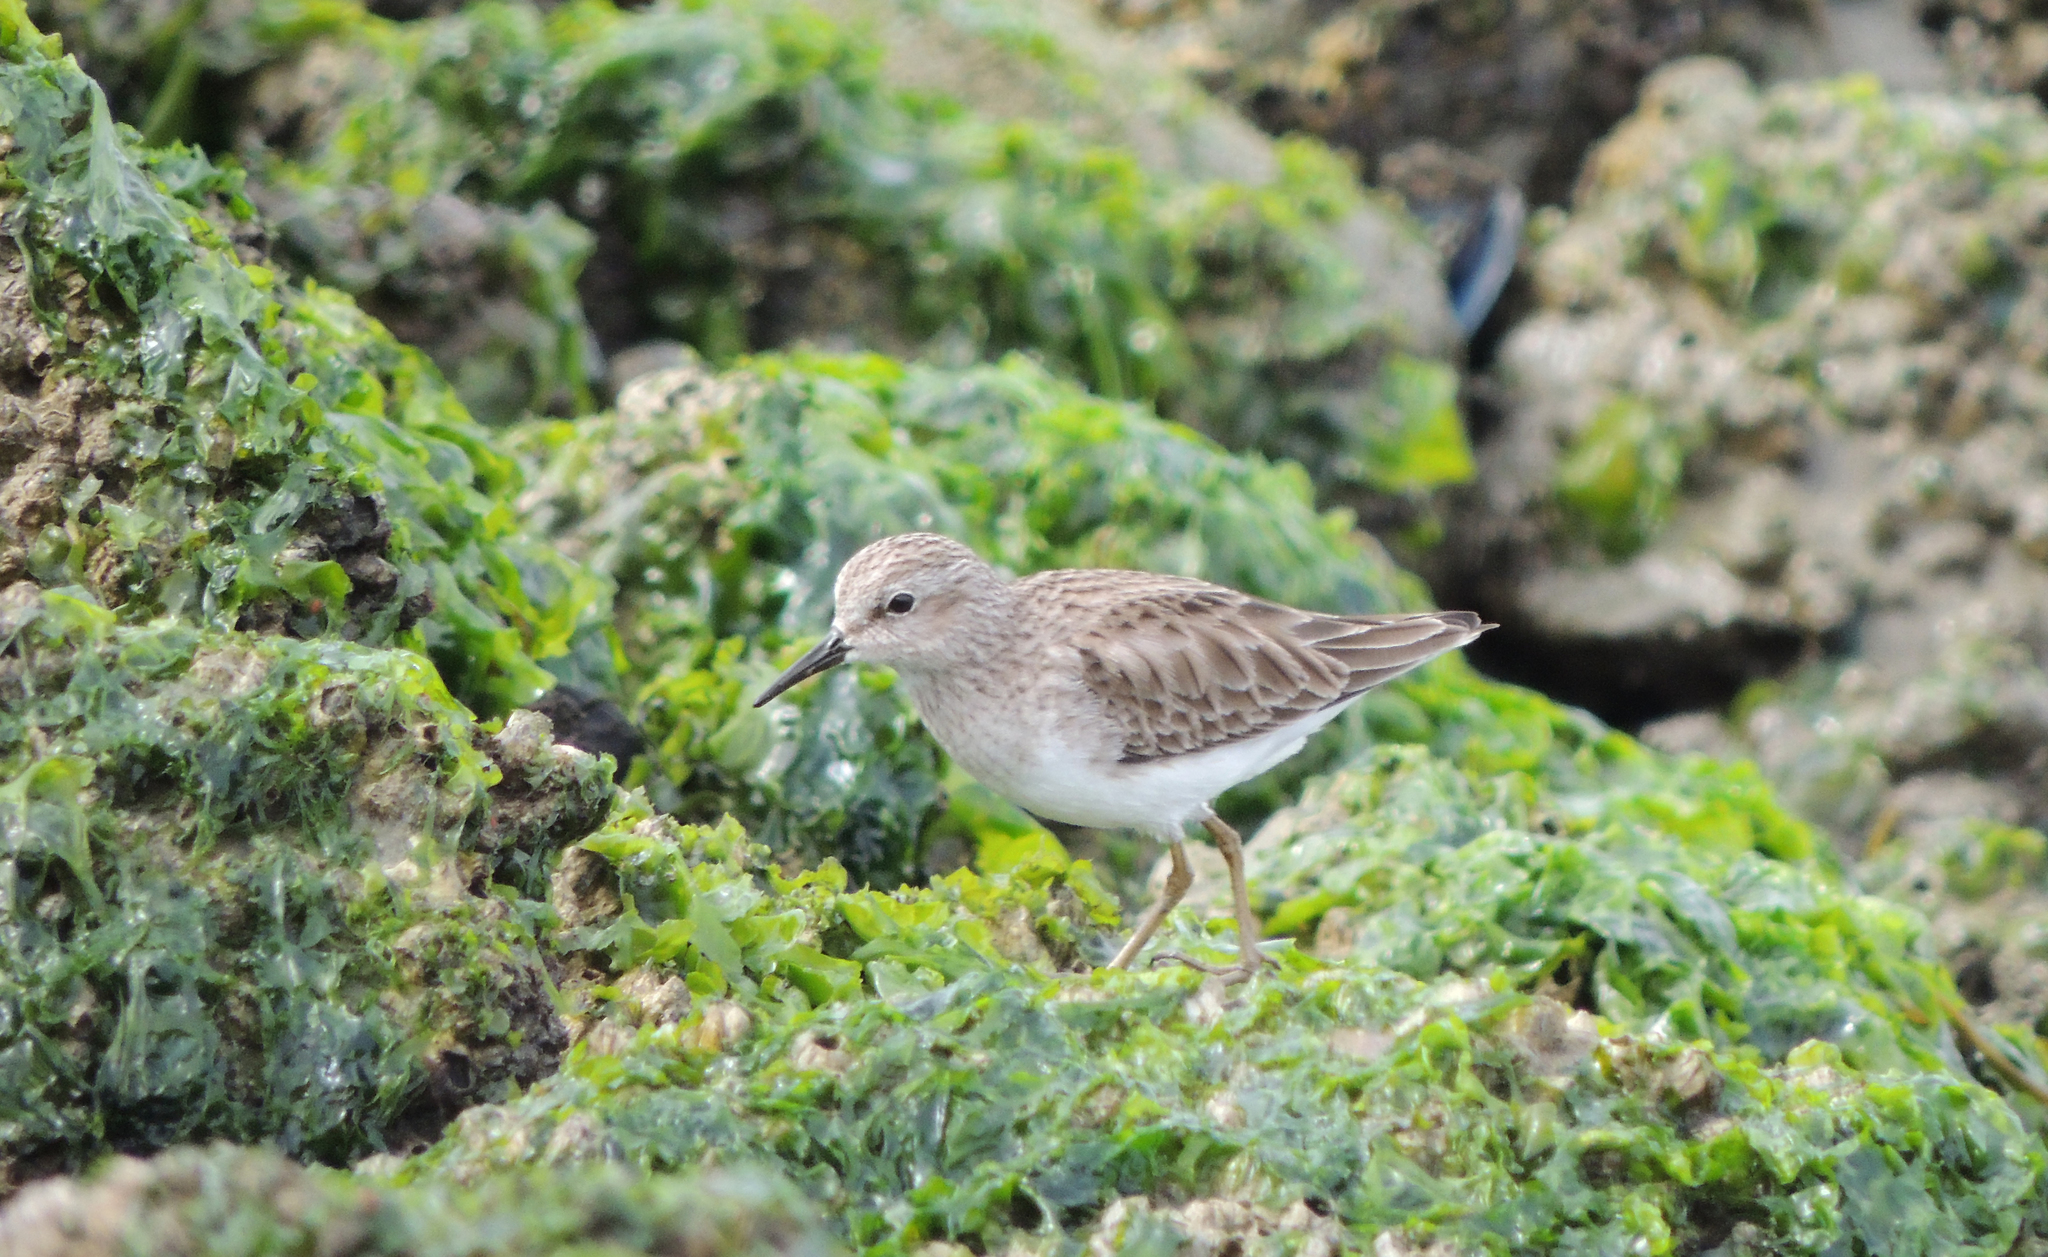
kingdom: Animalia
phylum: Chordata
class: Aves
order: Charadriiformes
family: Scolopacidae
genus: Calidris
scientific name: Calidris minutilla
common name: Least sandpiper
